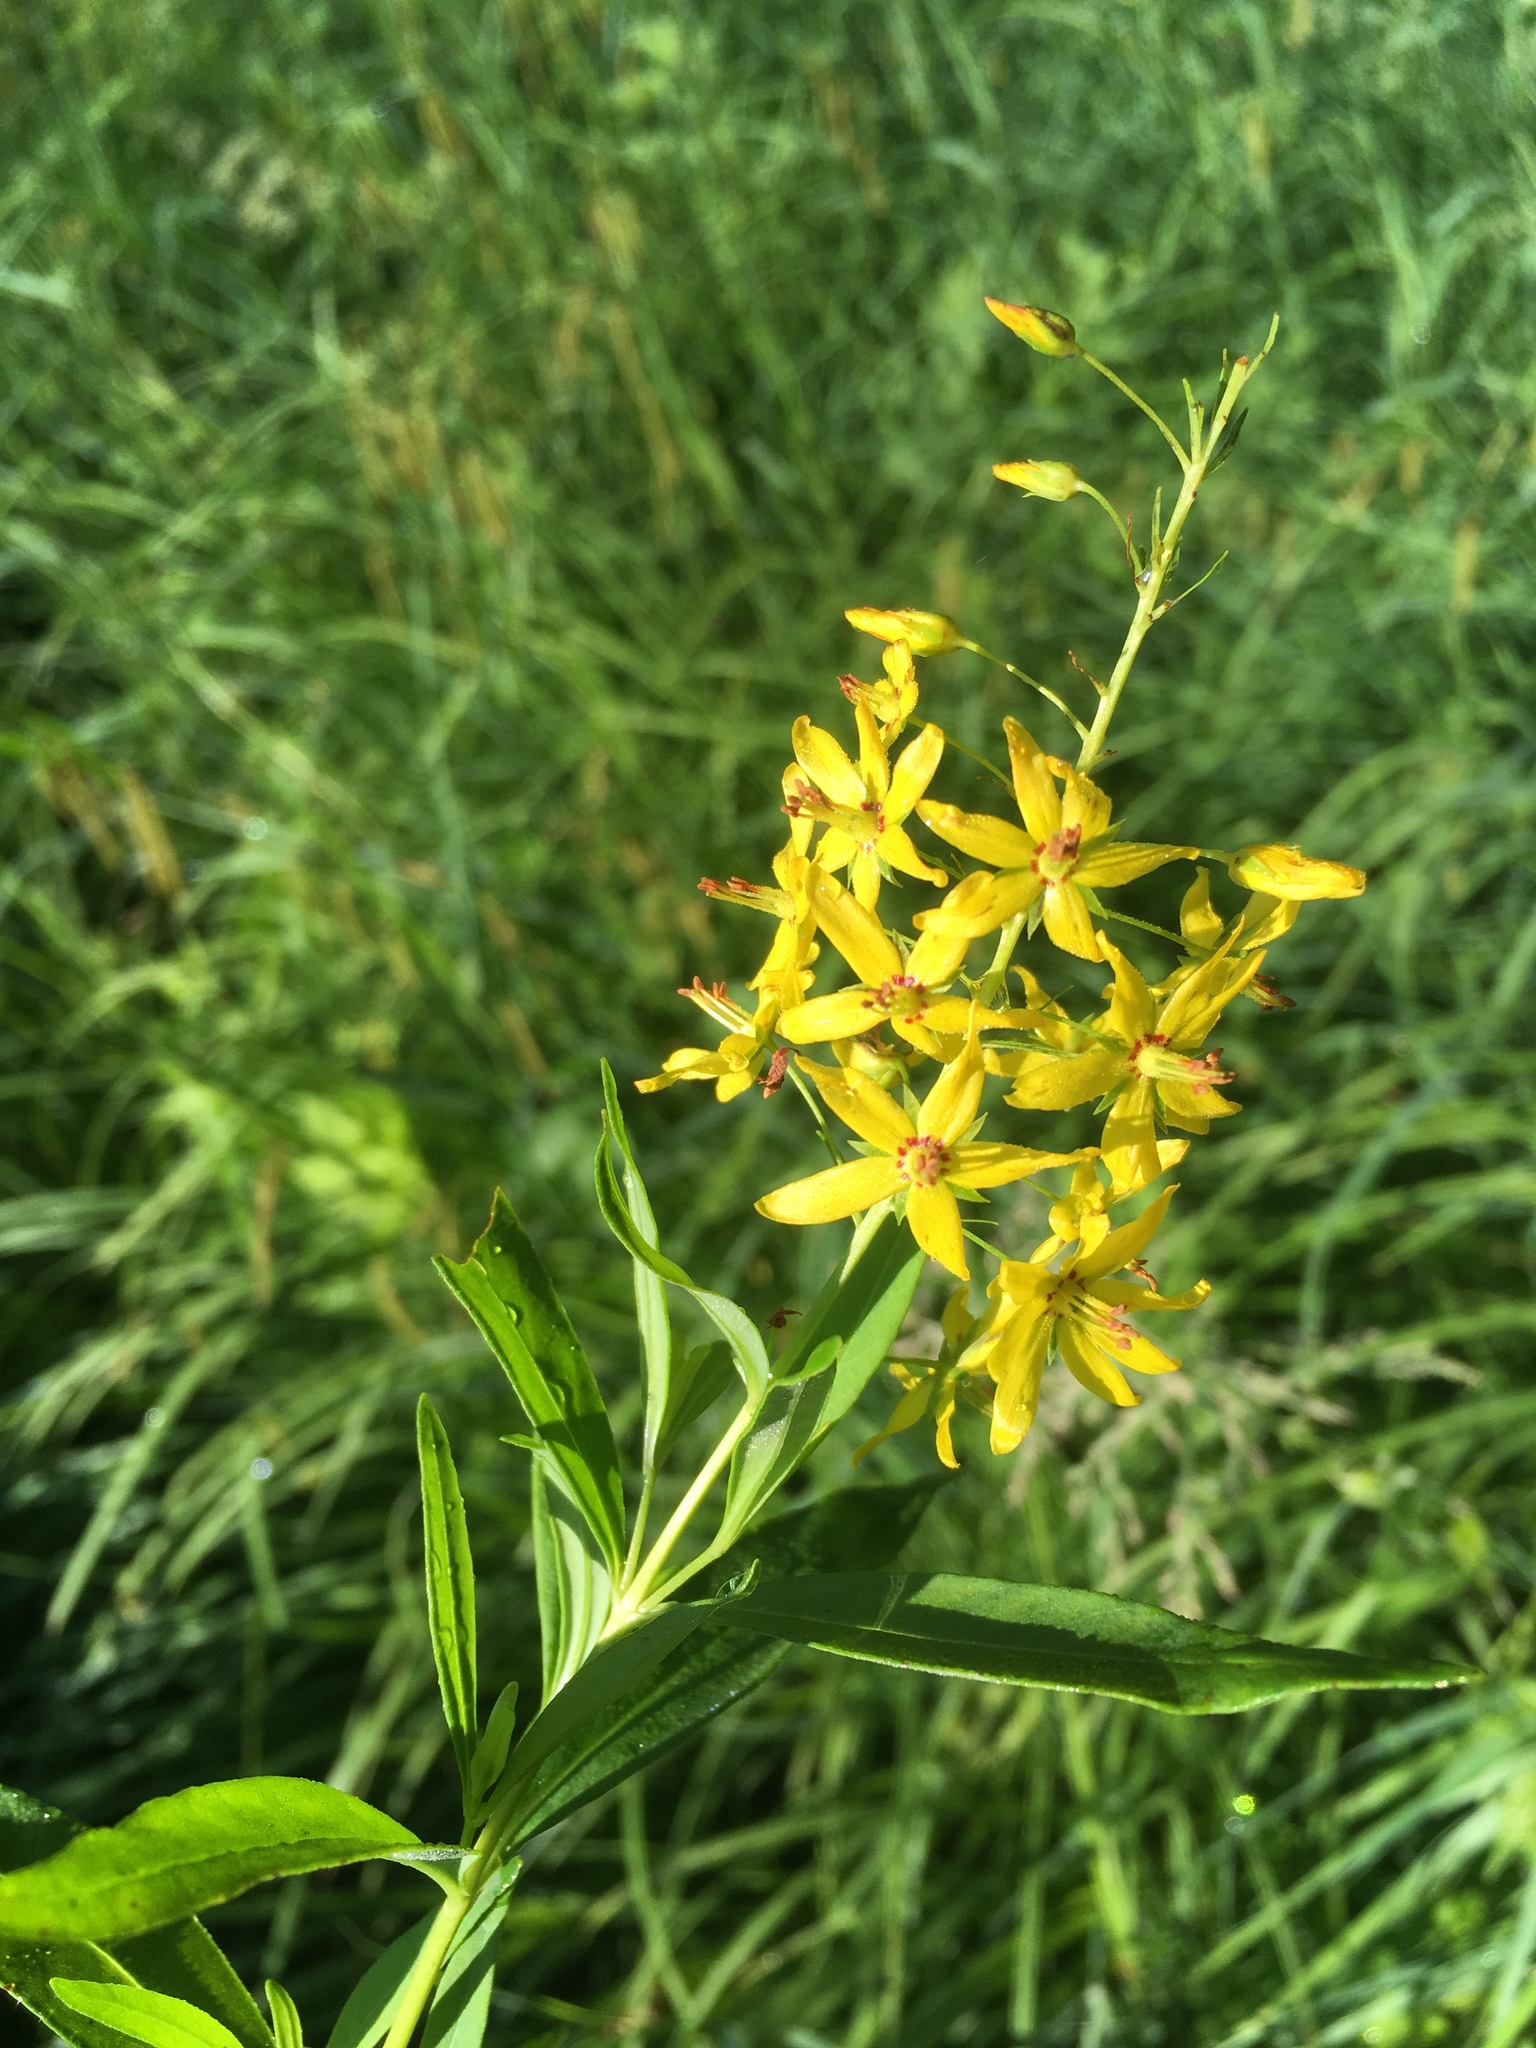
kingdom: Plantae
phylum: Tracheophyta
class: Magnoliopsida
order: Ericales
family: Primulaceae
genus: Lysimachia
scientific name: Lysimachia terrestris
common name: Lake loosestrife
